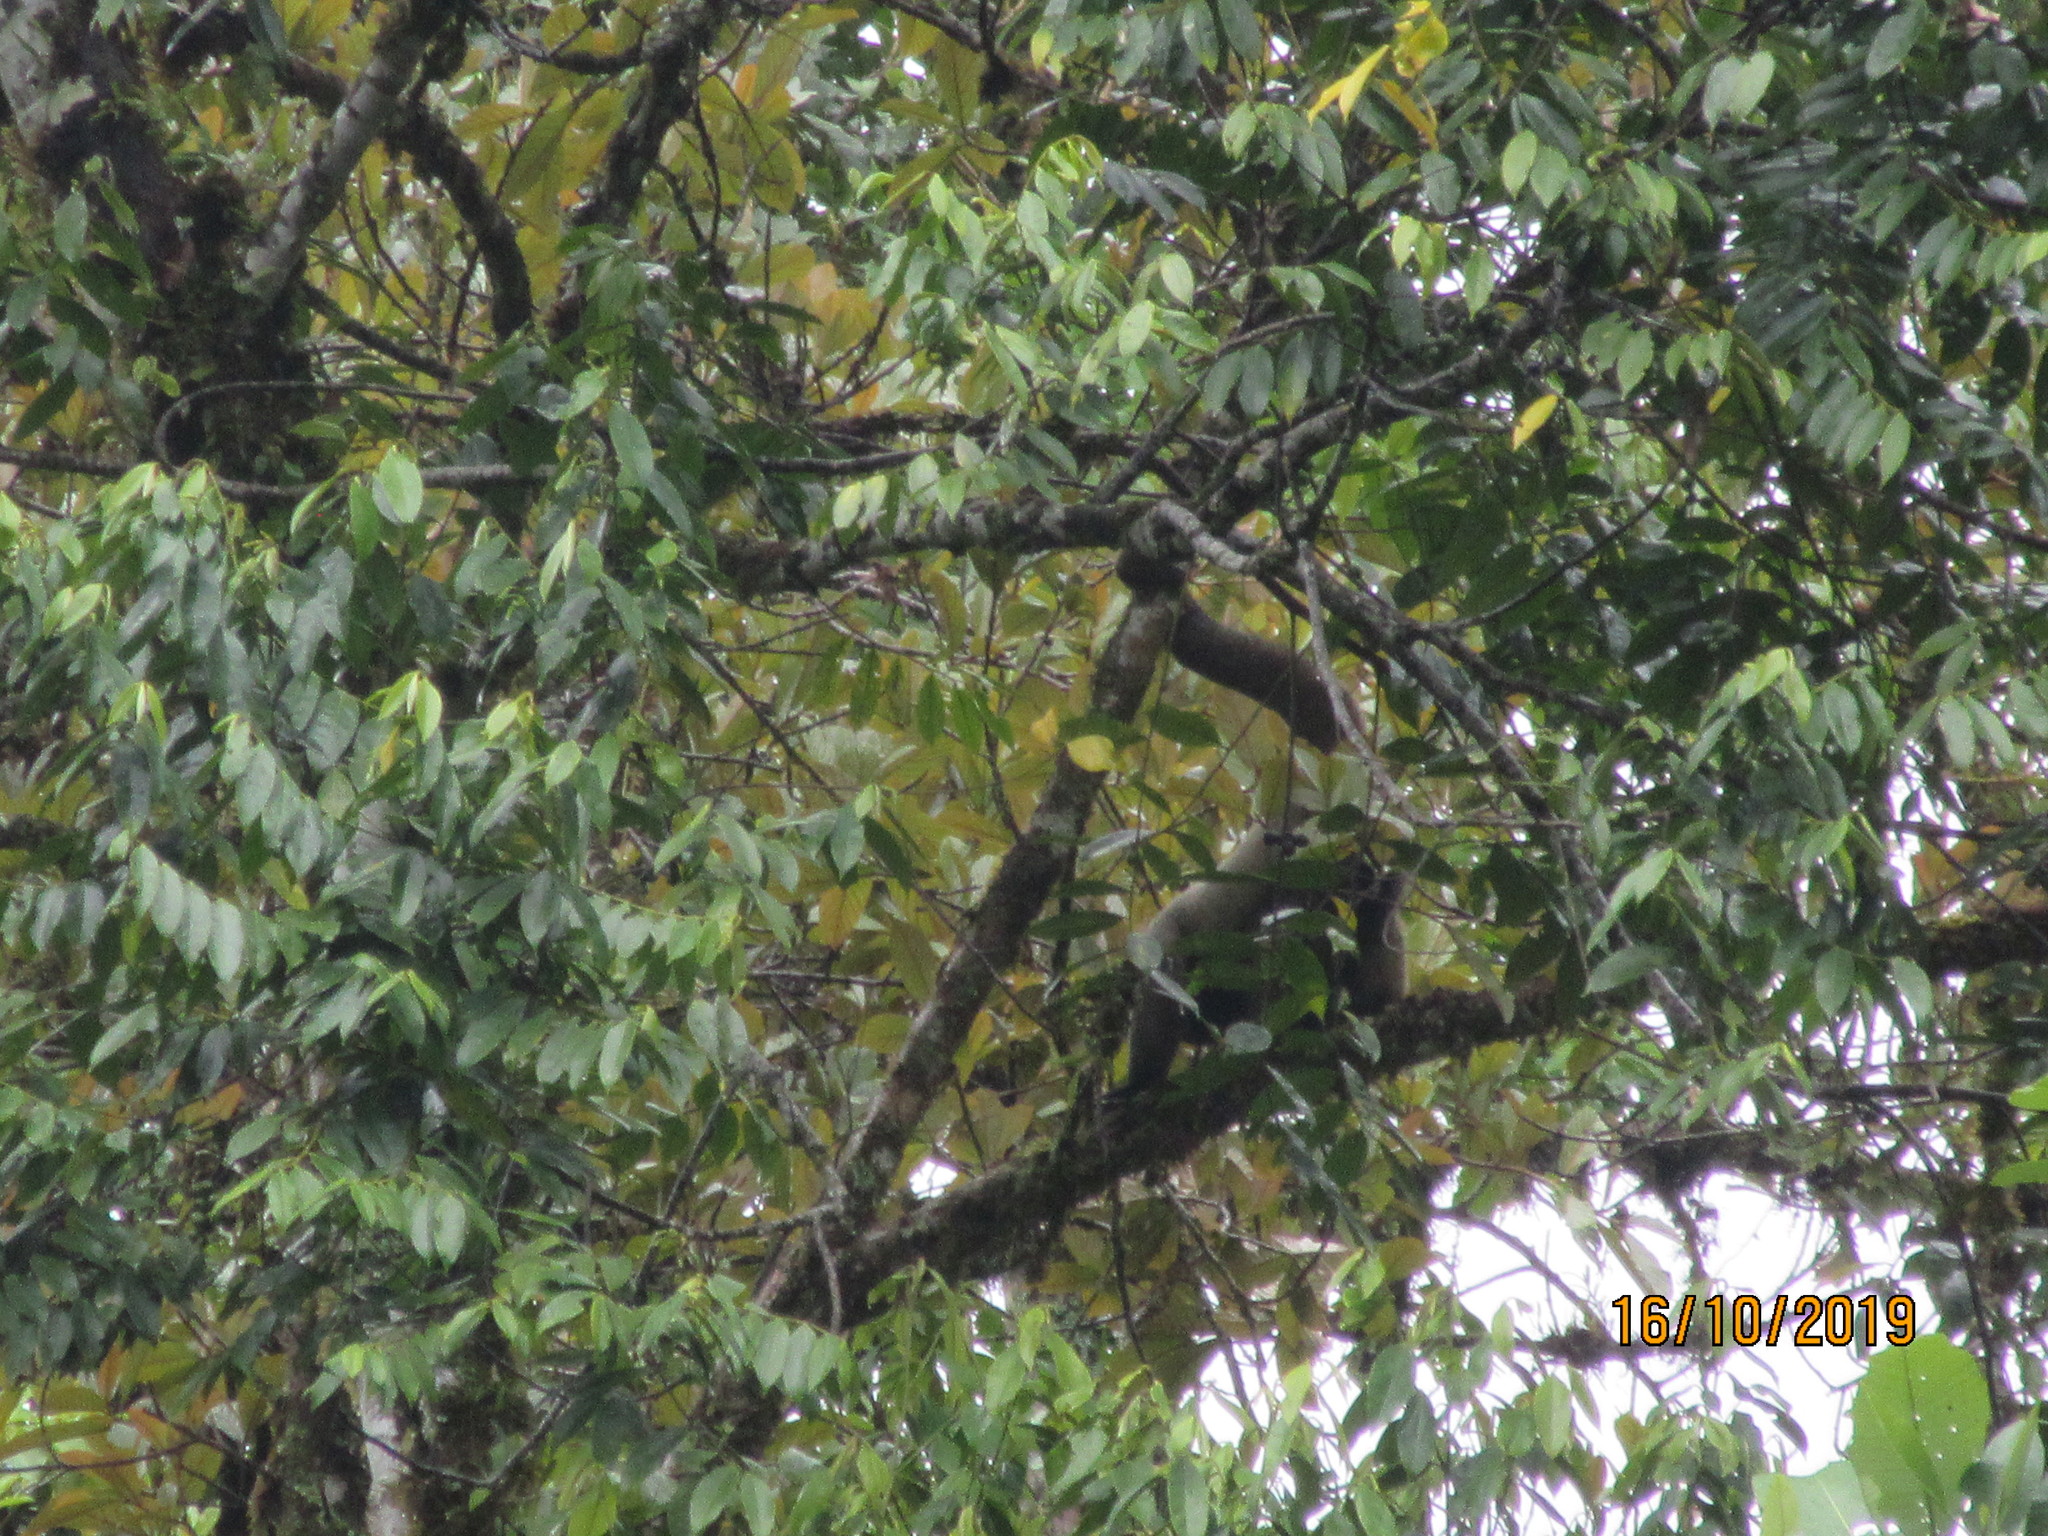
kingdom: Animalia
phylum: Chordata
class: Mammalia
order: Primates
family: Atelidae
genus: Lagothrix
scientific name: Lagothrix lagothricha
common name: Brown woolly monkey
